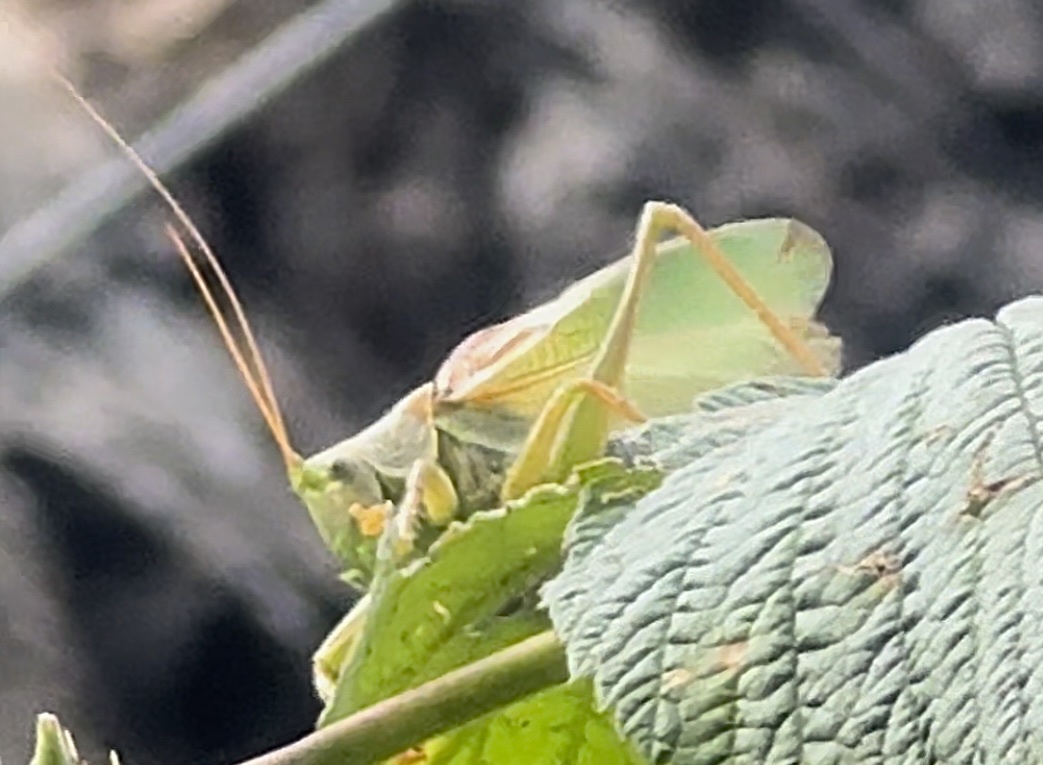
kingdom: Animalia
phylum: Arthropoda
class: Insecta
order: Orthoptera
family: Tettigoniidae
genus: Tettigonia
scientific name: Tettigonia cantans
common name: Upland green bush-cricket
